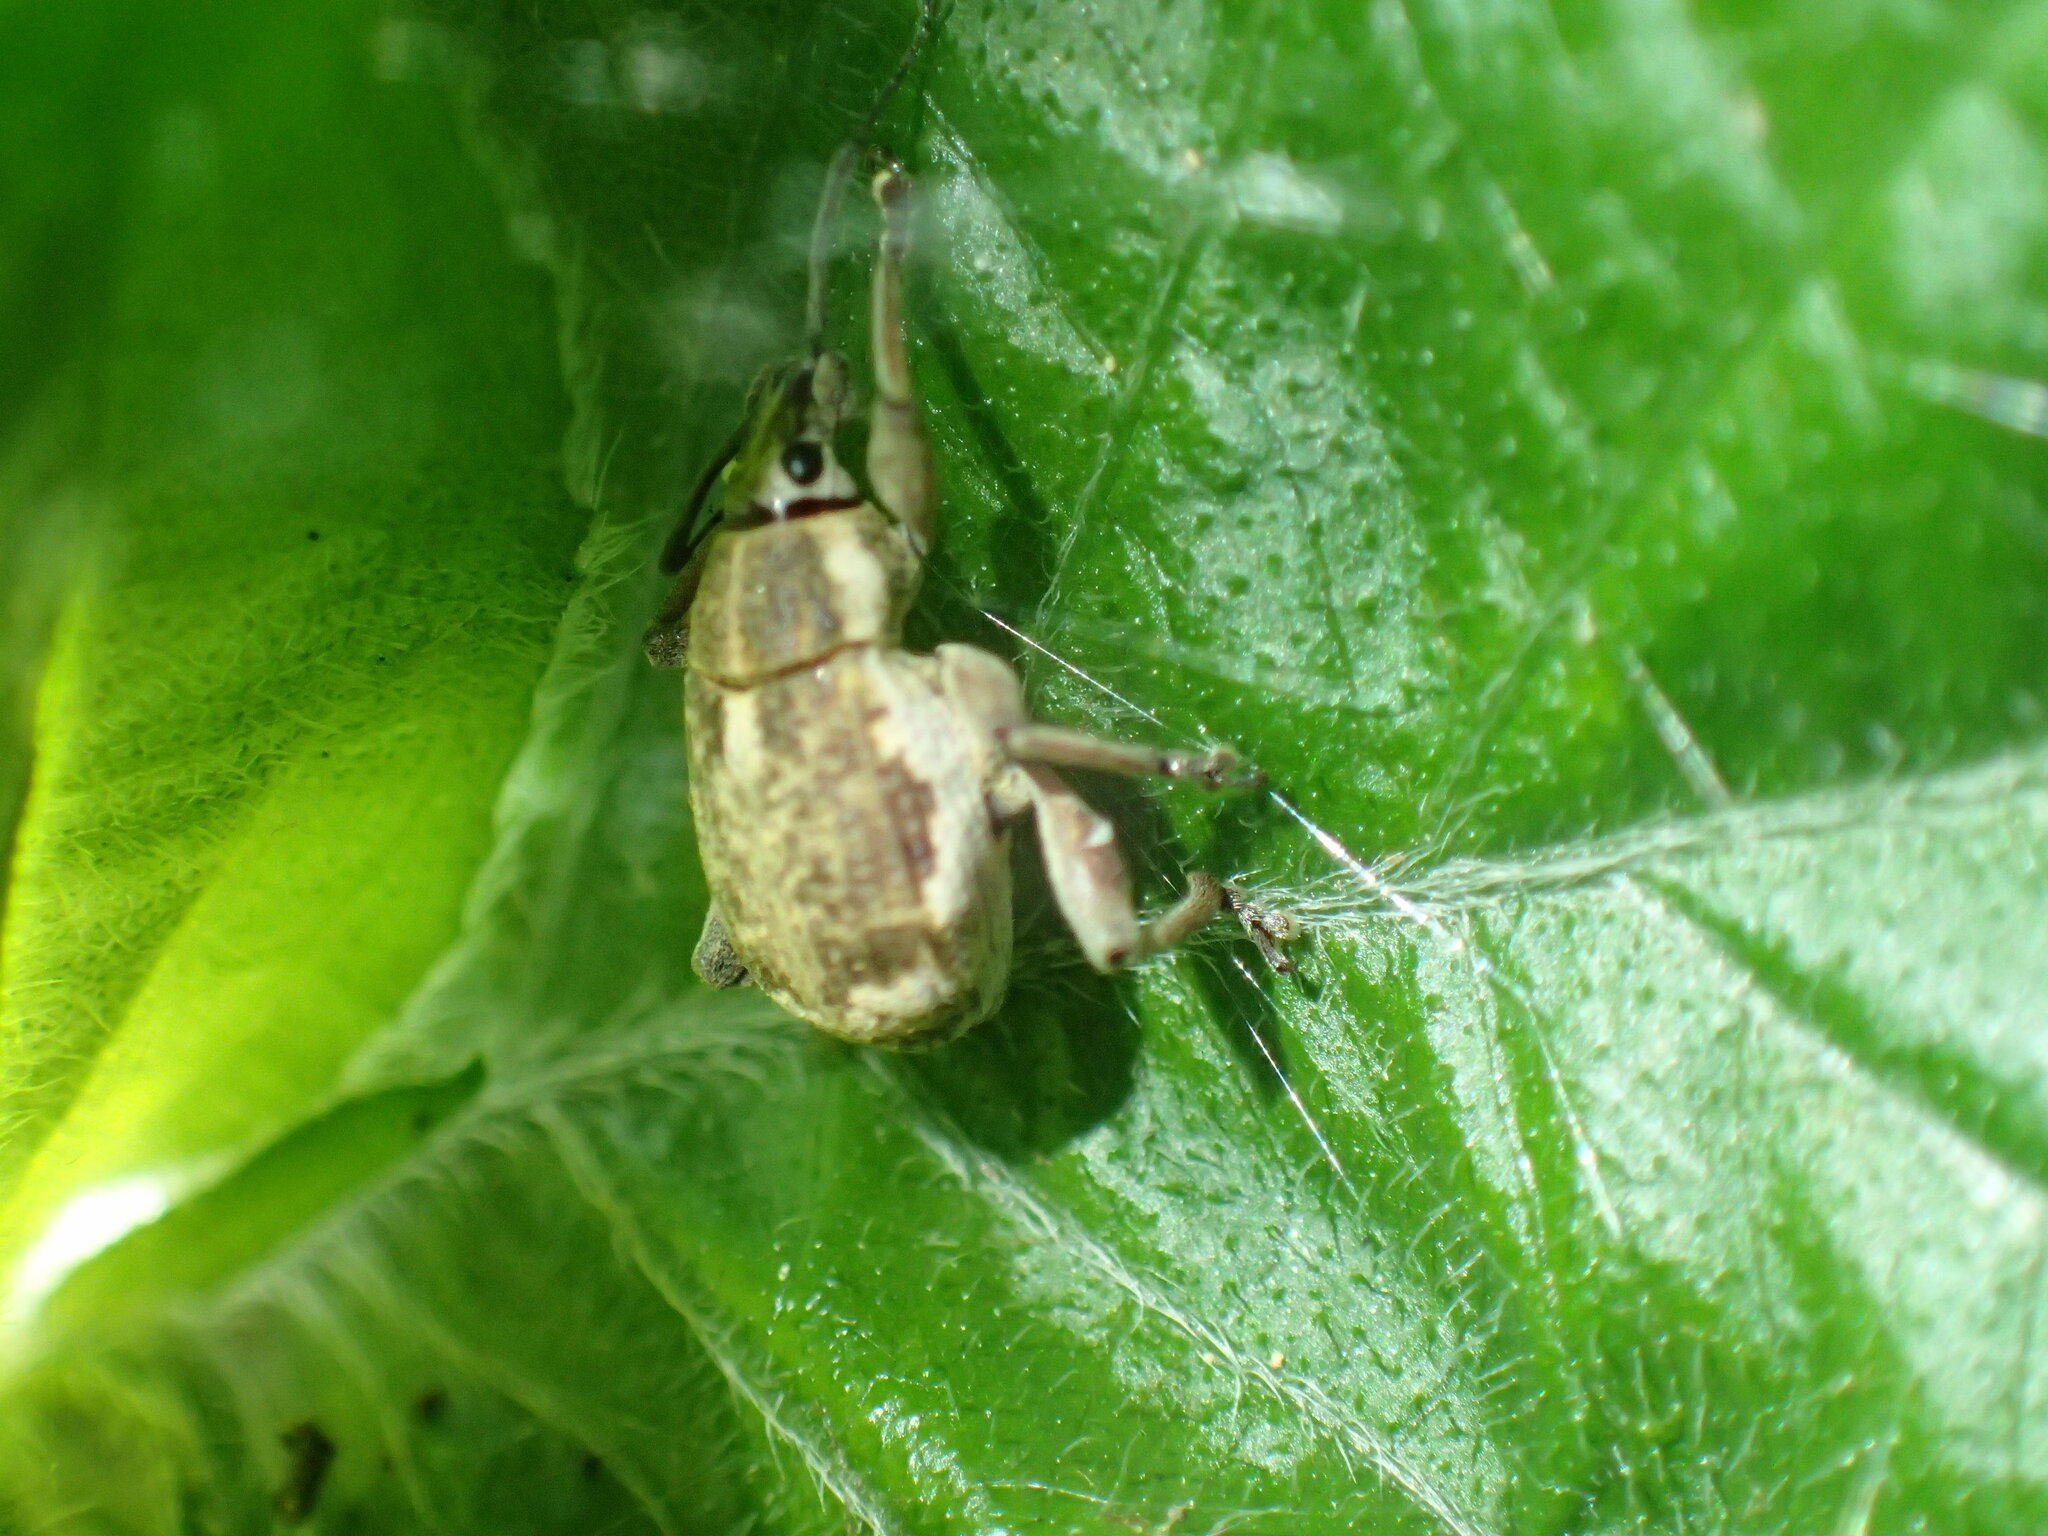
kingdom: Animalia
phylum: Arthropoda
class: Insecta
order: Coleoptera
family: Curculionidae
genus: Sciobius
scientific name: Sciobius pullus
